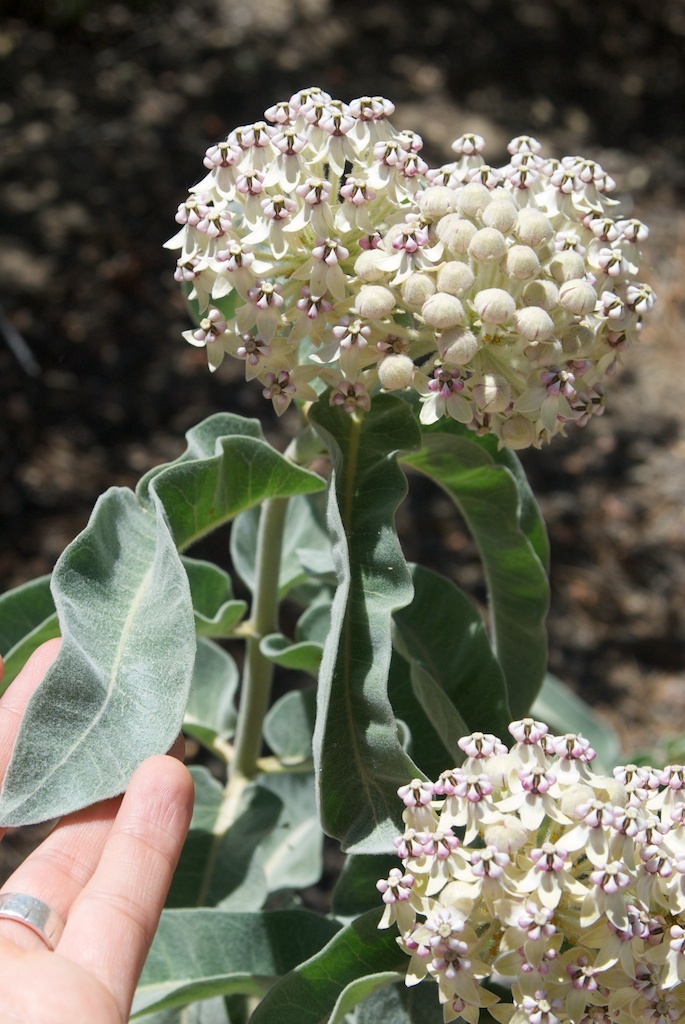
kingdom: Plantae
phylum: Tracheophyta
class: Magnoliopsida
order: Gentianales
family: Apocynaceae
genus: Asclepias
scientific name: Asclepias eriocarpa
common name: Indian milkweed
